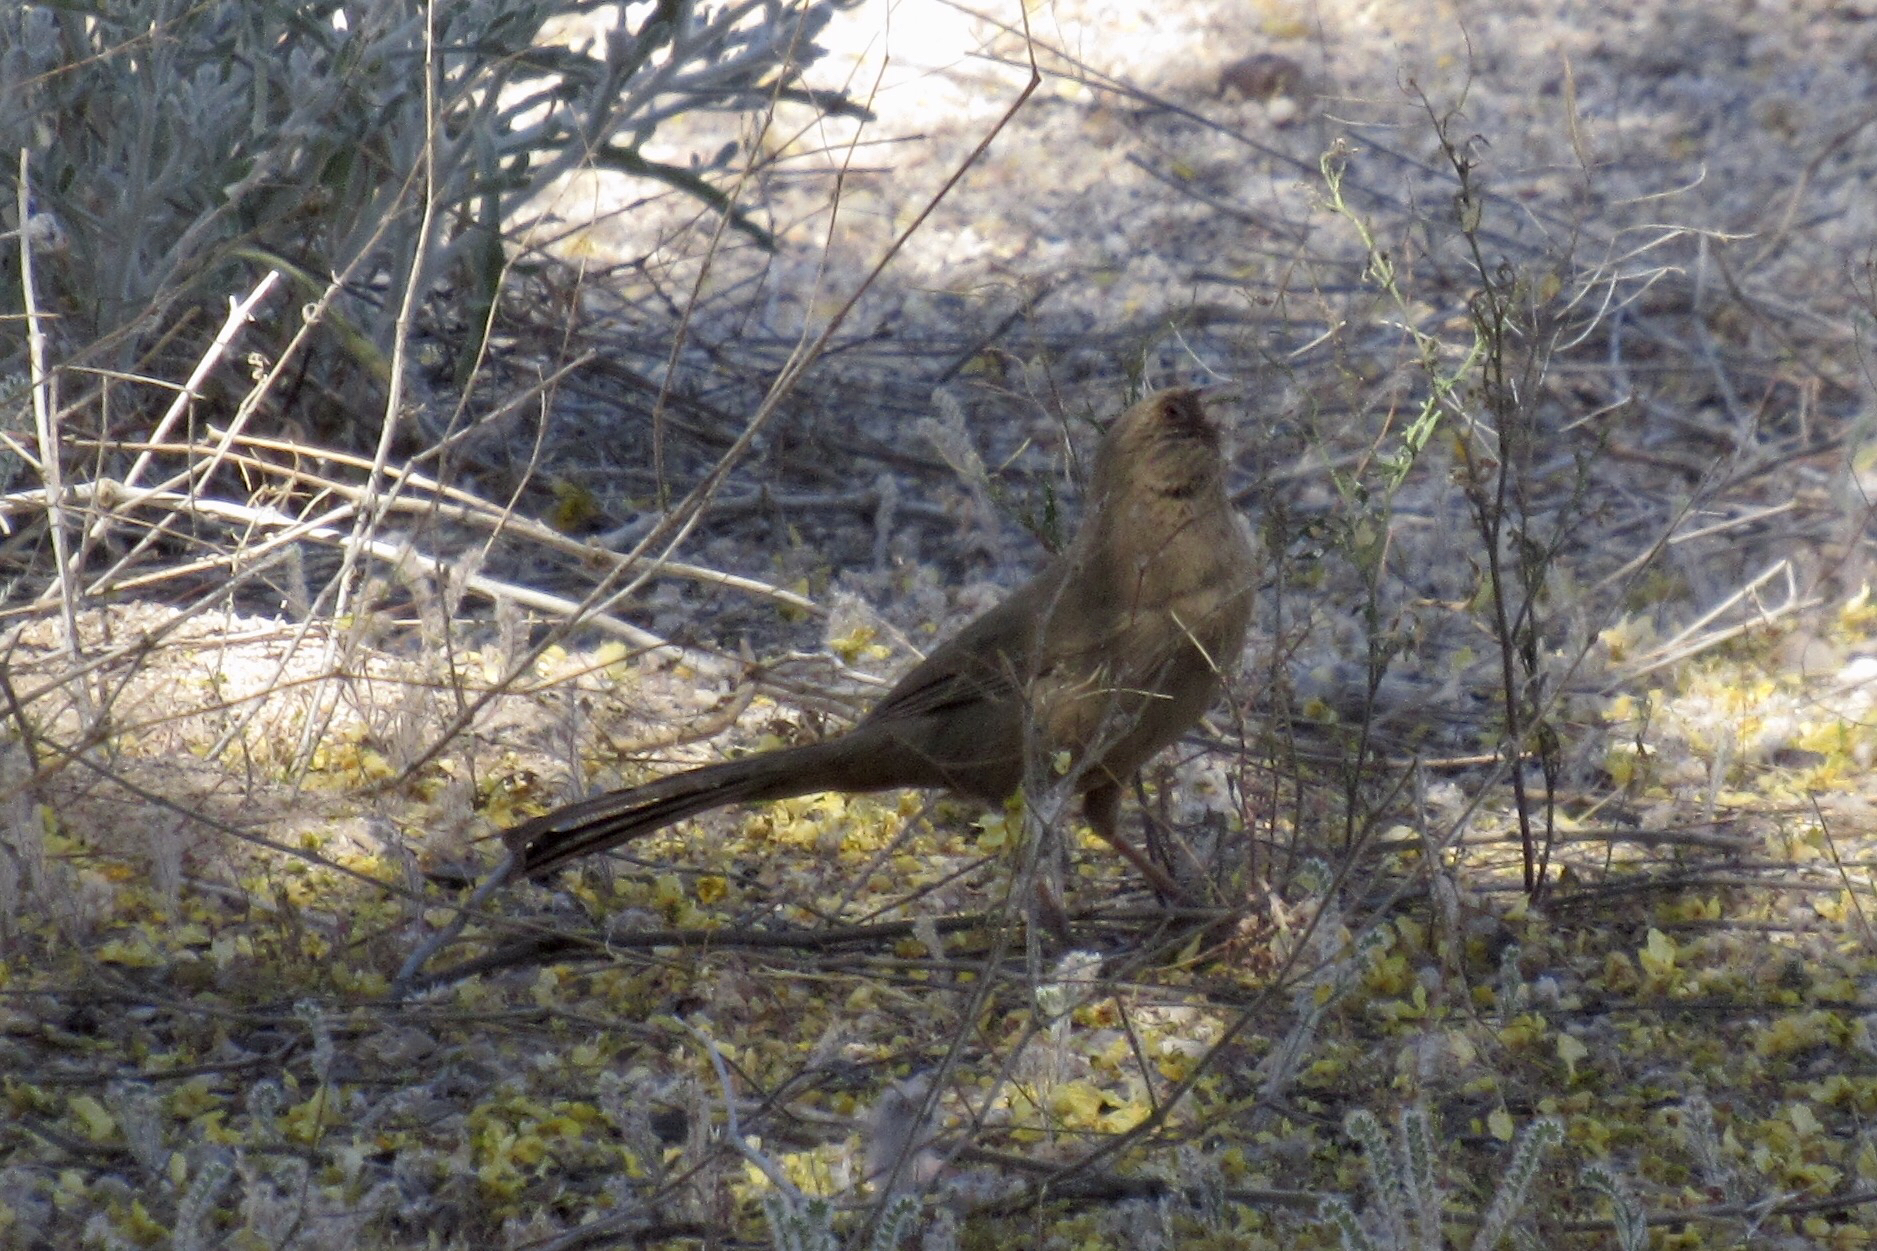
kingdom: Animalia
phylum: Chordata
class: Aves
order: Passeriformes
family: Passerellidae
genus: Melozone
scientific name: Melozone aberti
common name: Abert's towhee
